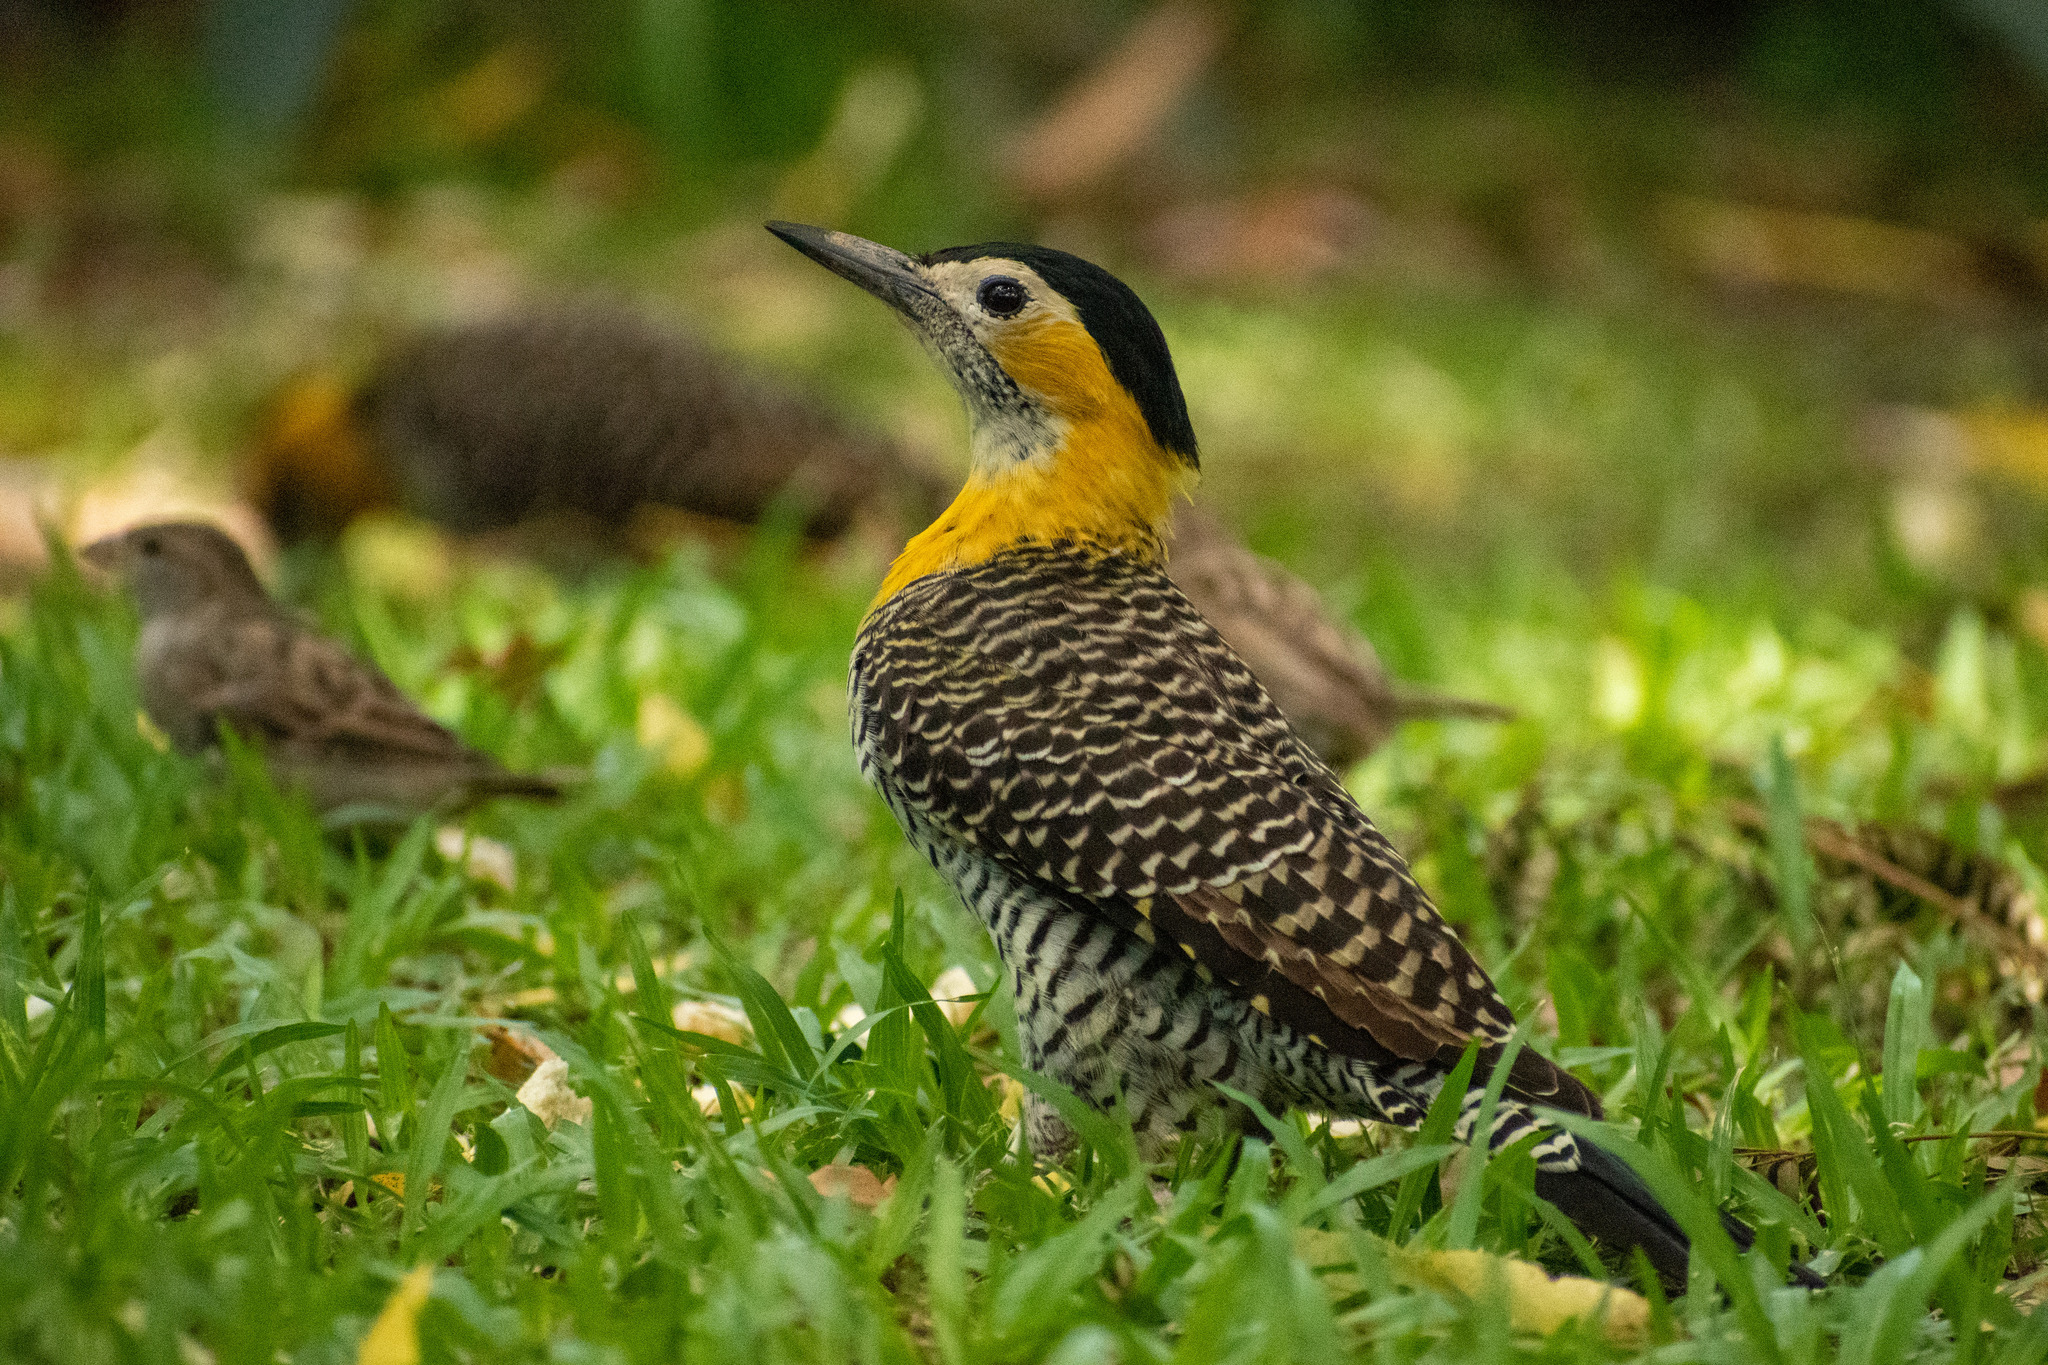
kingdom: Animalia
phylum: Chordata
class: Aves
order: Piciformes
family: Picidae
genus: Colaptes
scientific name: Colaptes campestris
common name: Campo flicker
